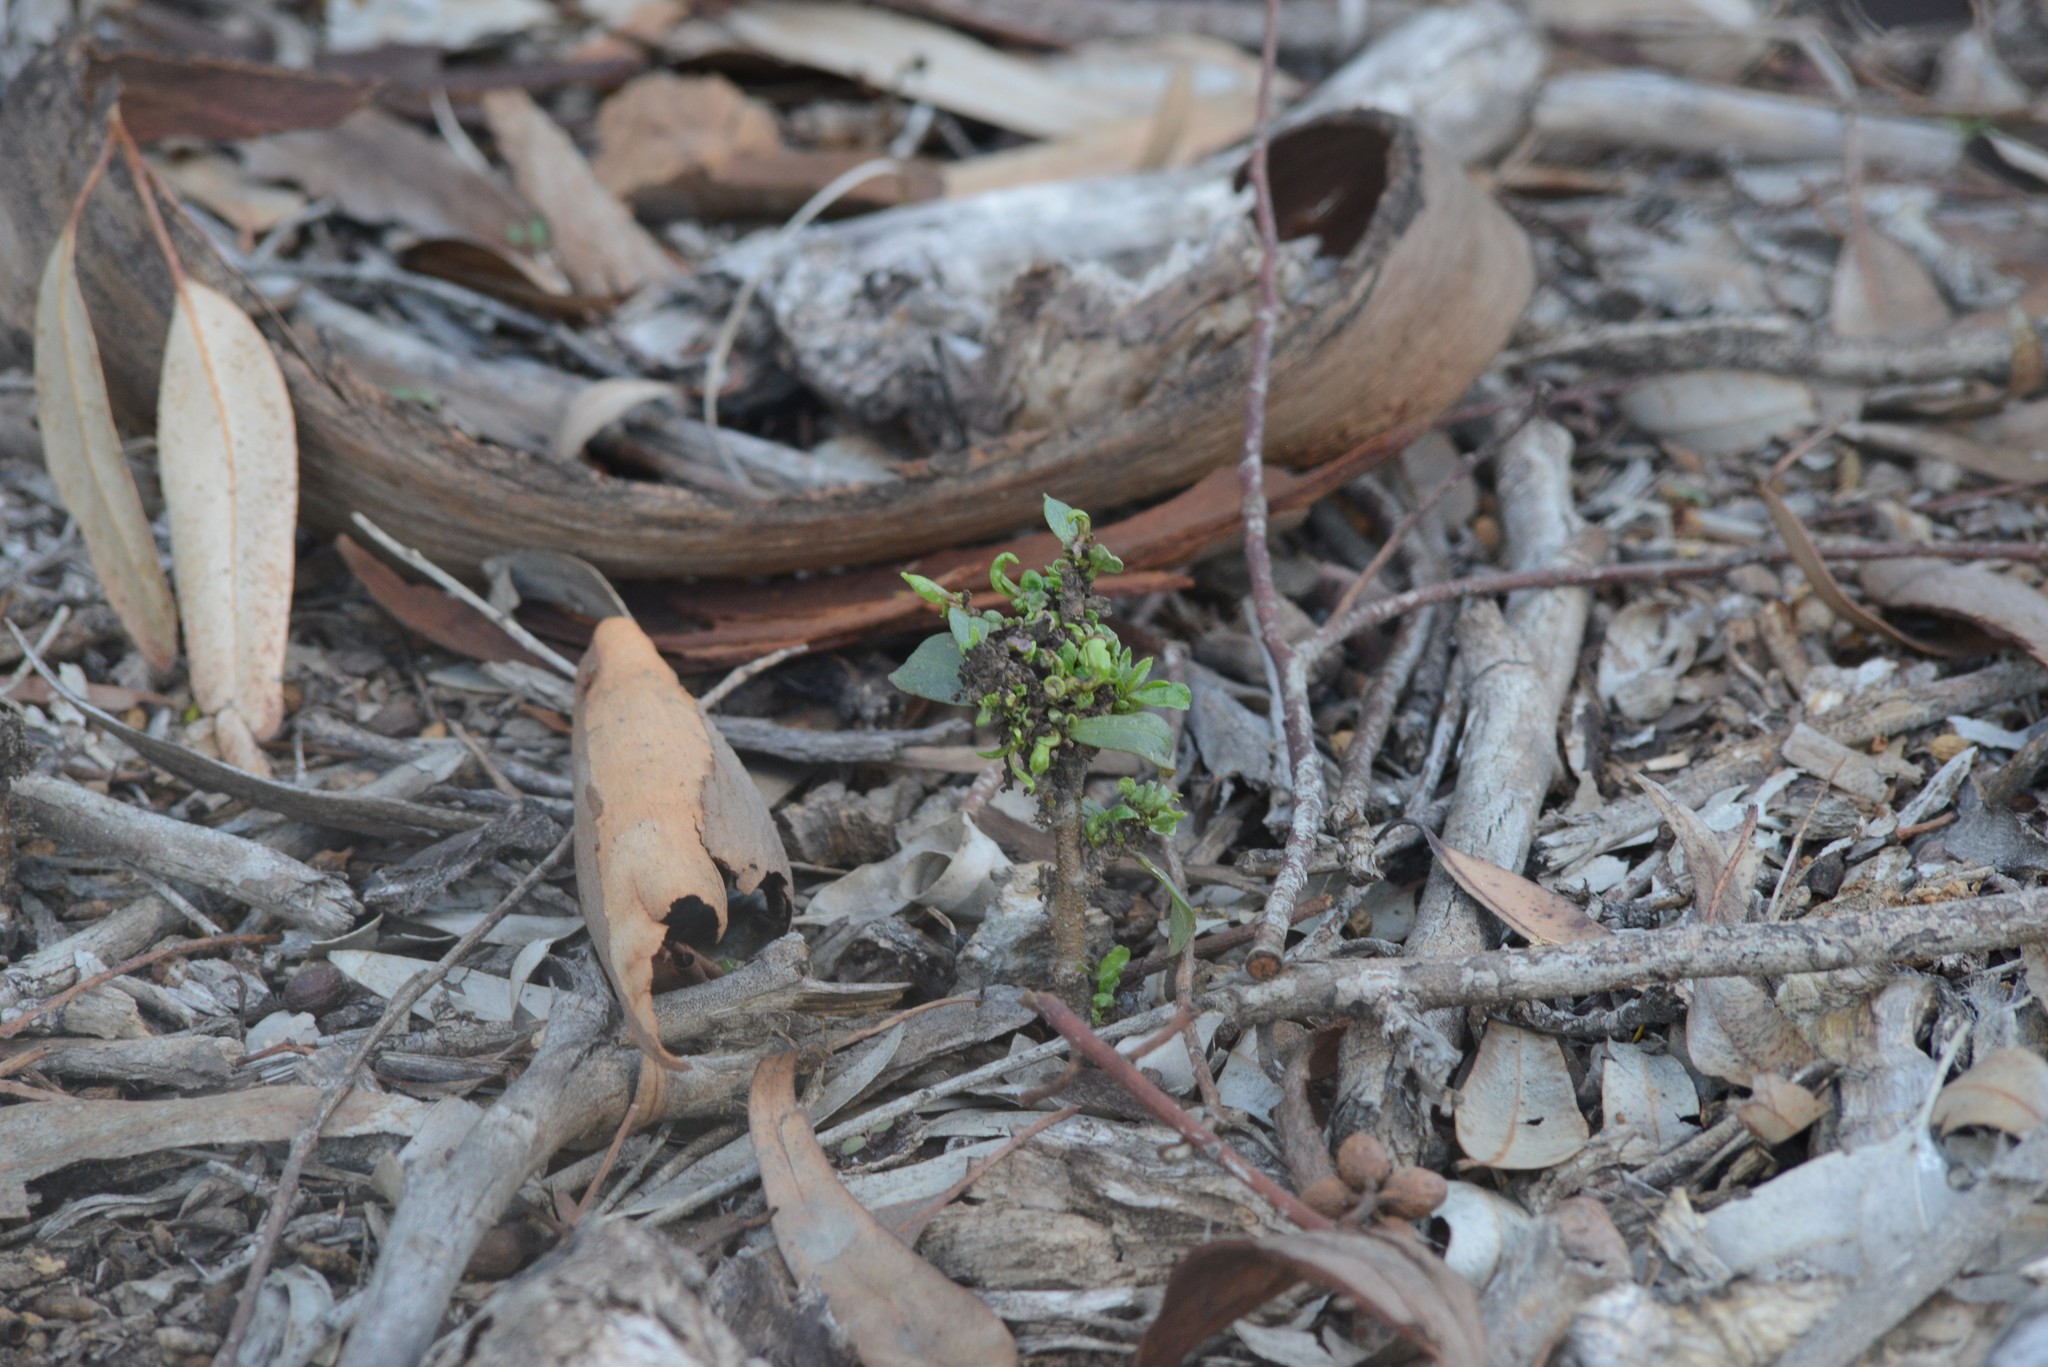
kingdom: Plantae
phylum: Tracheophyta
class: Magnoliopsida
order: Lamiales
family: Scrophulariaceae
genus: Myoporum
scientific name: Myoporum laetum
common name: Ngaio tree
